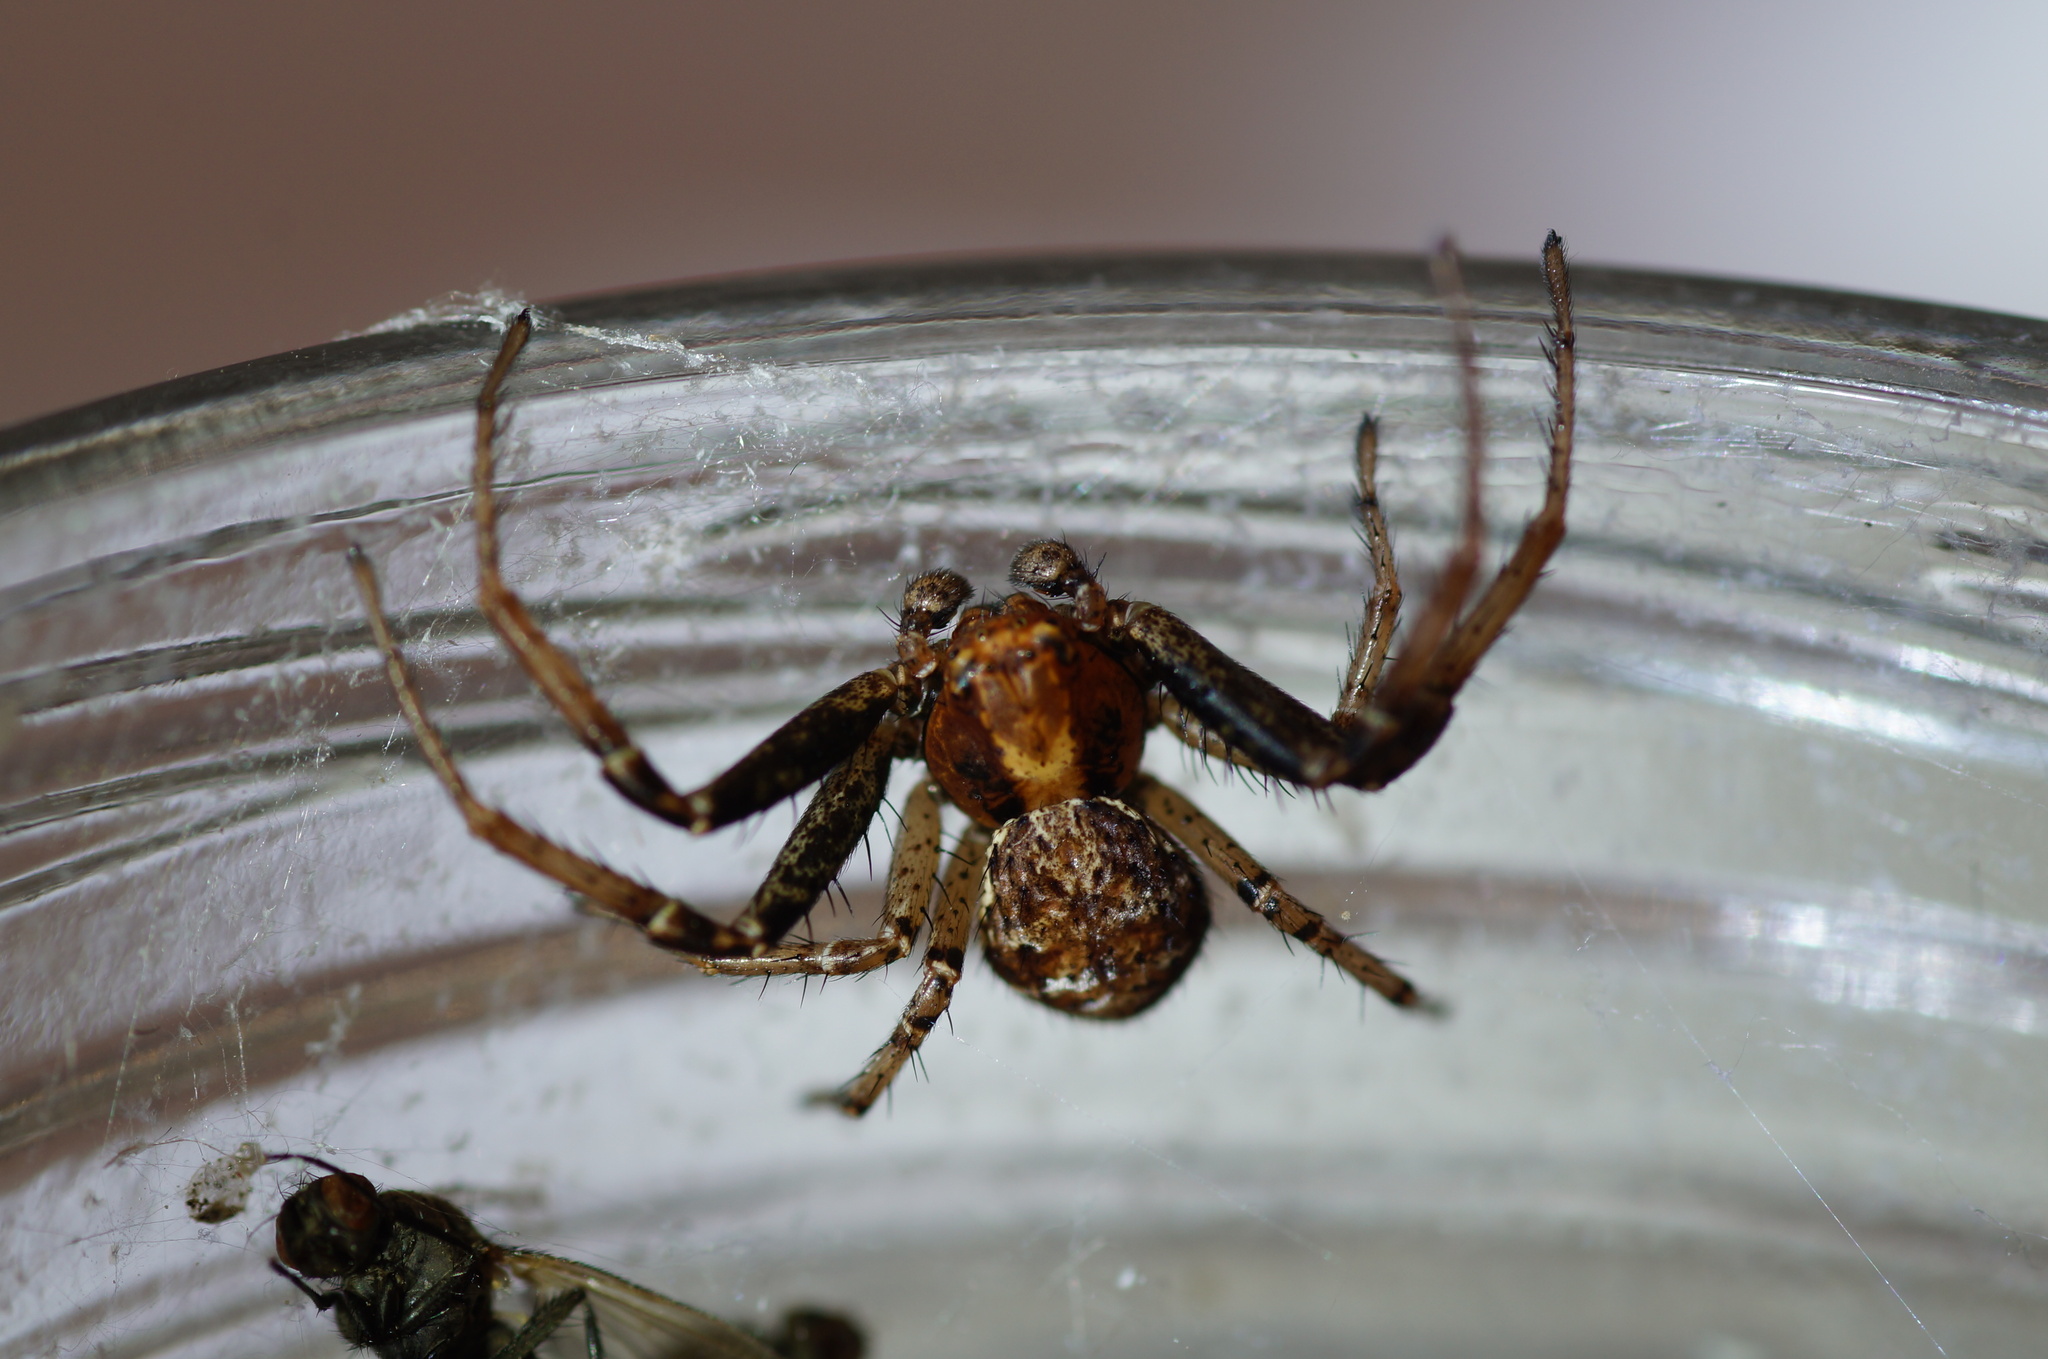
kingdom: Animalia
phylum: Arthropoda
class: Arachnida
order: Araneae
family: Thomisidae
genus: Xysticus
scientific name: Xysticus lanio
